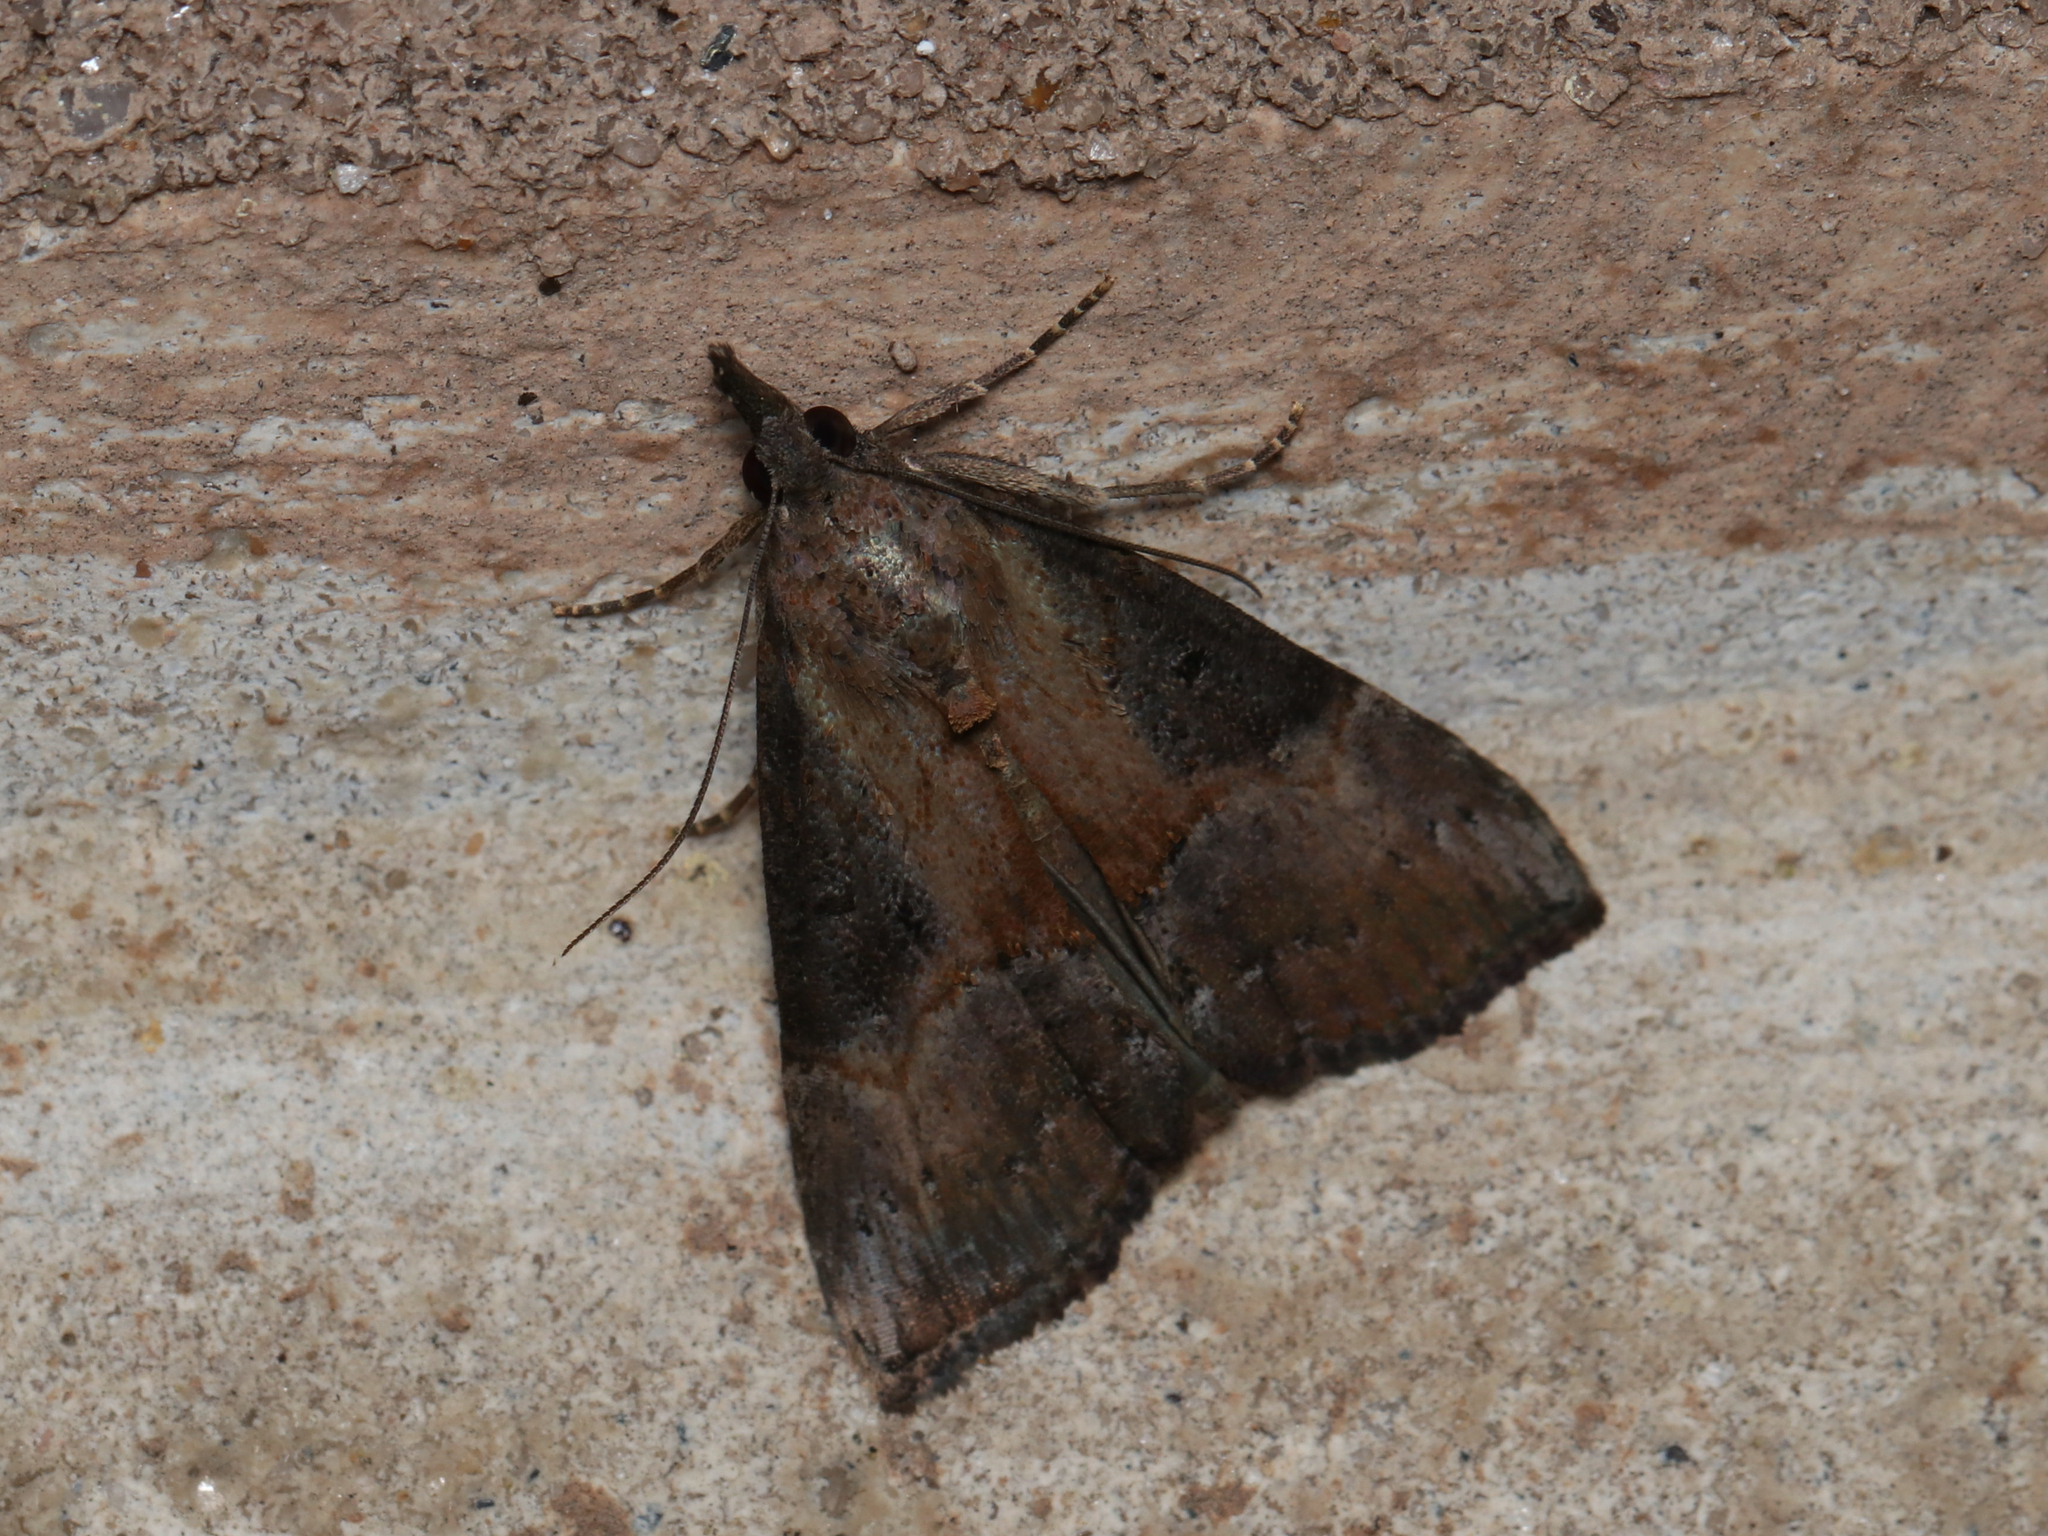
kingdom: Animalia
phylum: Arthropoda
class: Insecta
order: Lepidoptera
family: Erebidae
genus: Hypena
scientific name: Hypena scabra
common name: Green cloverworm
